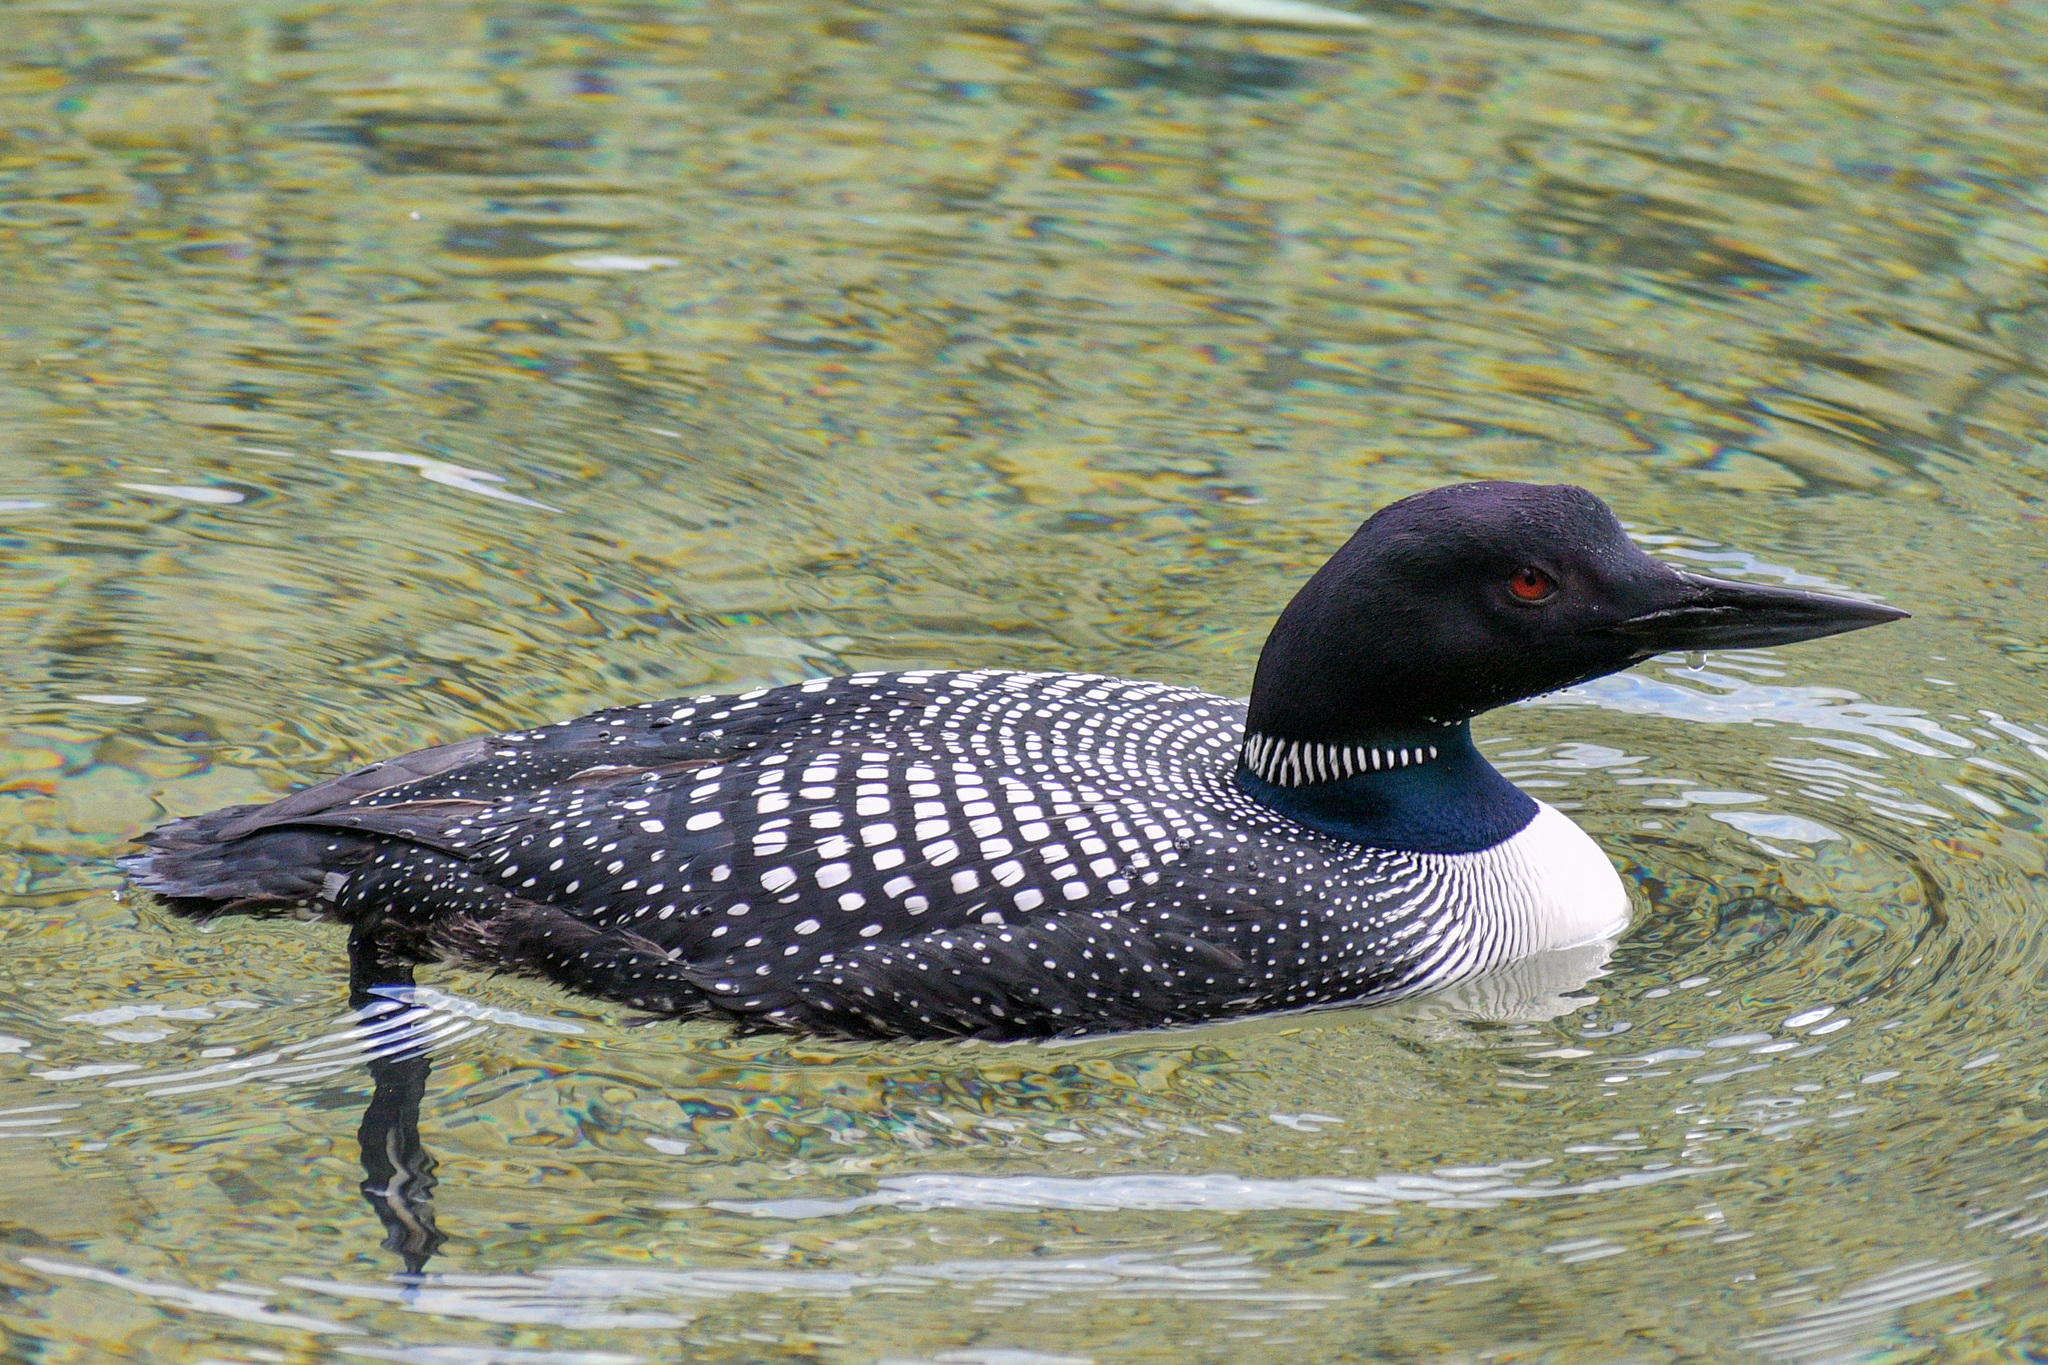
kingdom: Animalia
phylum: Chordata
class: Aves
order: Gaviiformes
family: Gaviidae
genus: Gavia
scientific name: Gavia immer
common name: Common loon
